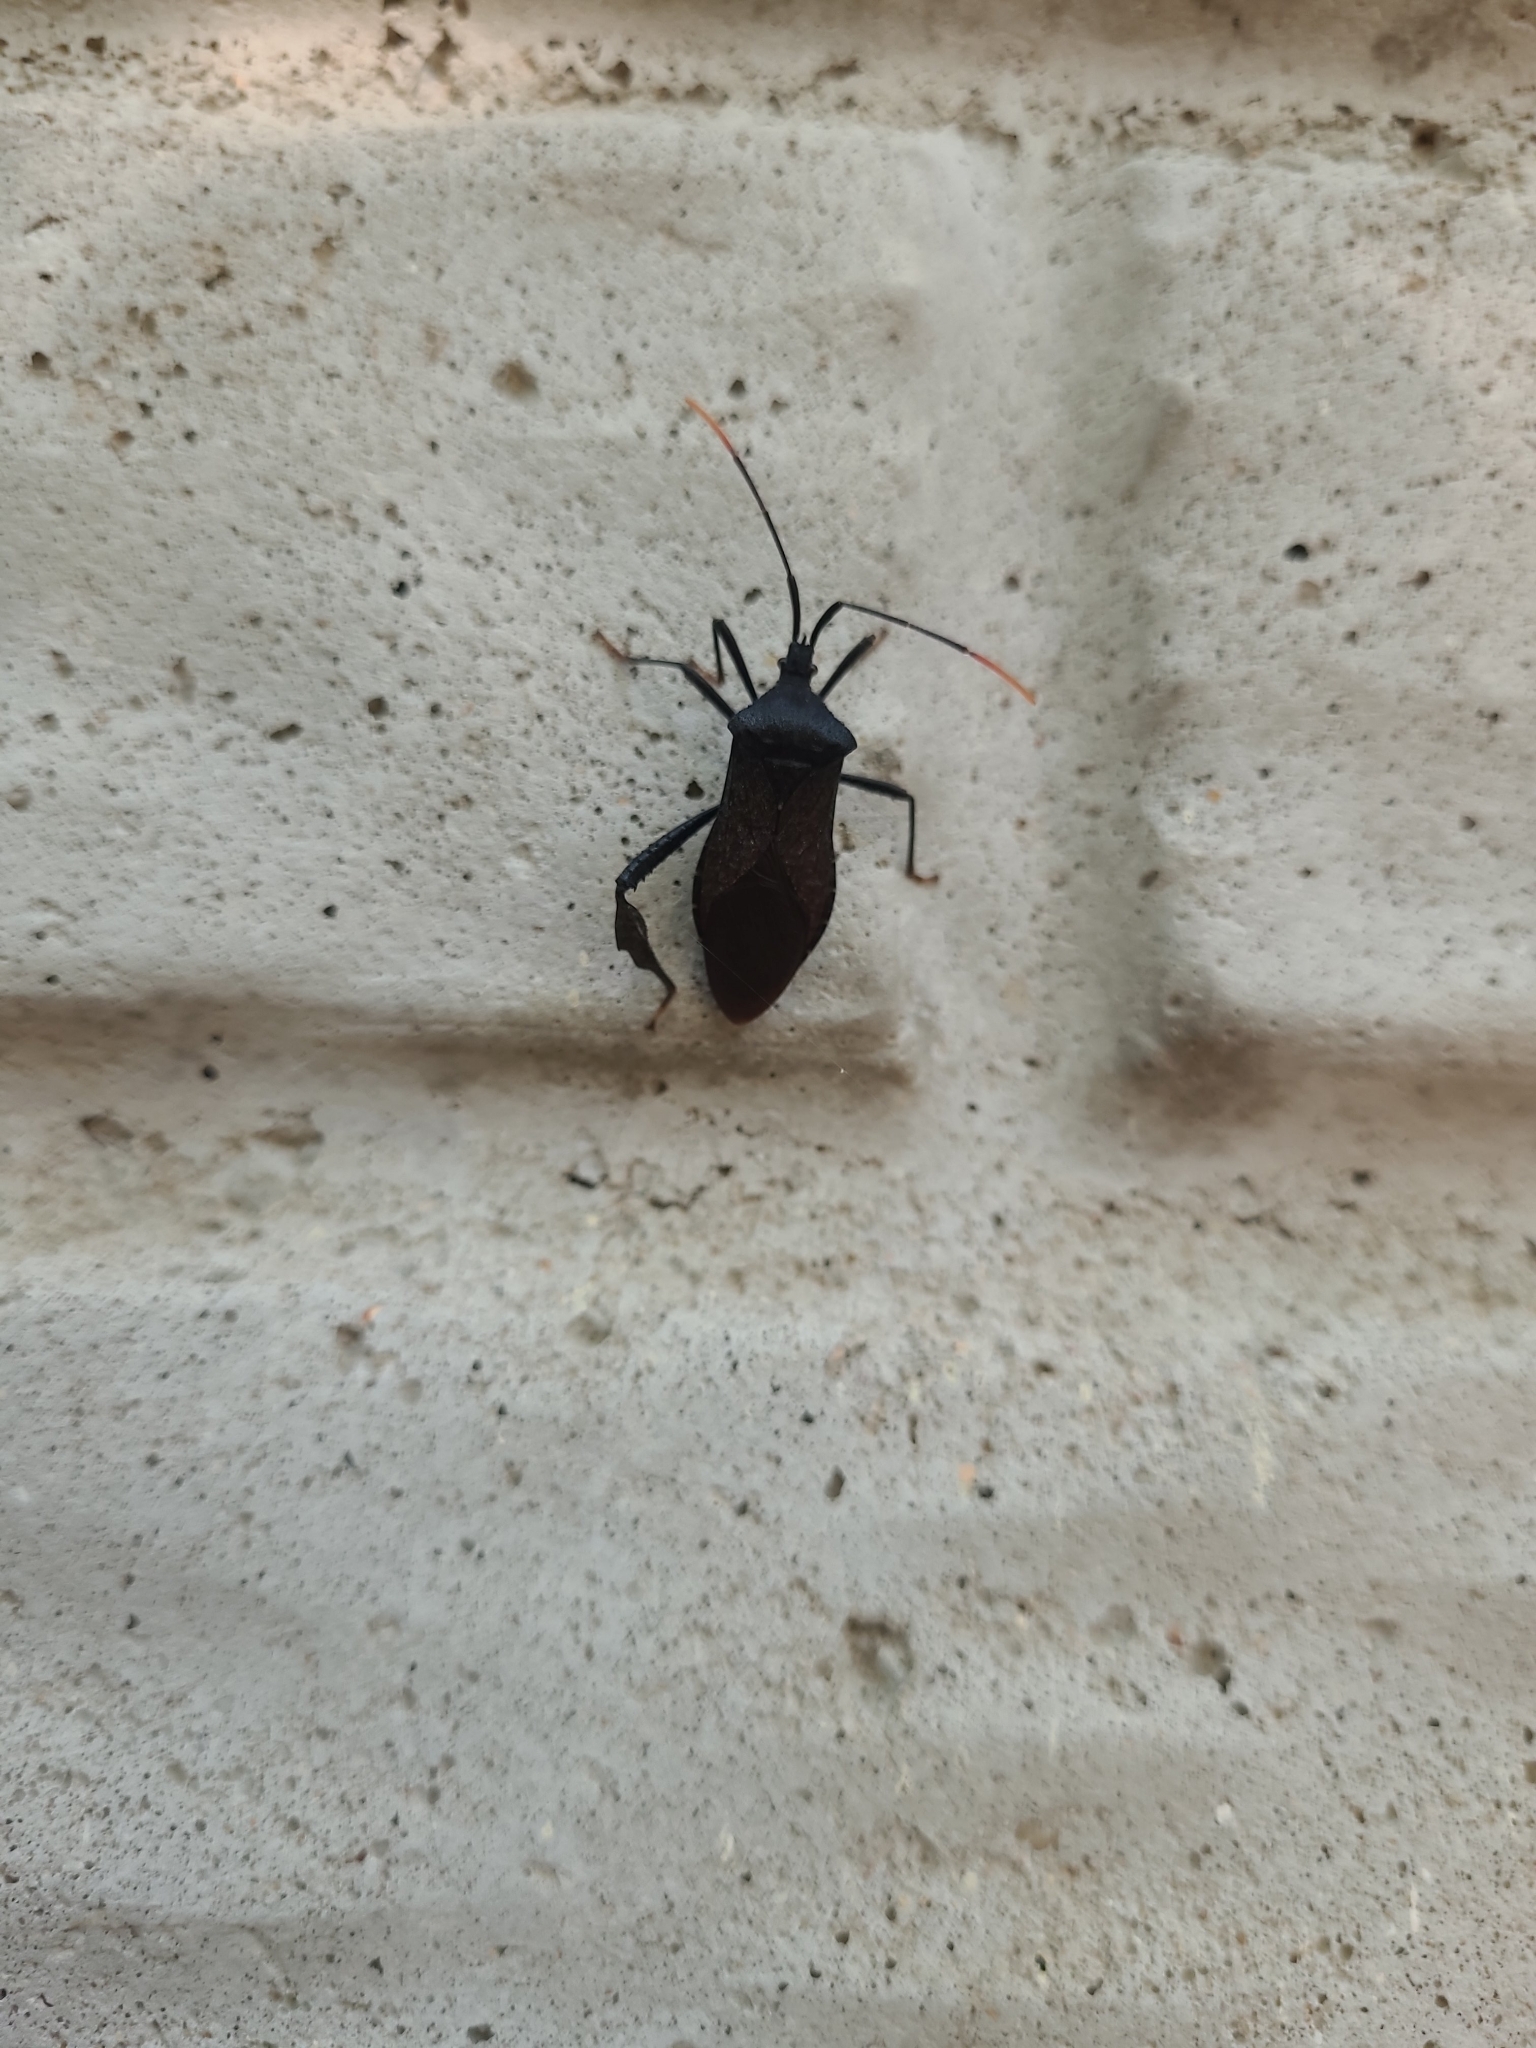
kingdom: Animalia
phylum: Arthropoda
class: Insecta
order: Hemiptera
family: Coreidae
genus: Acanthocephala
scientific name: Acanthocephala terminalis
